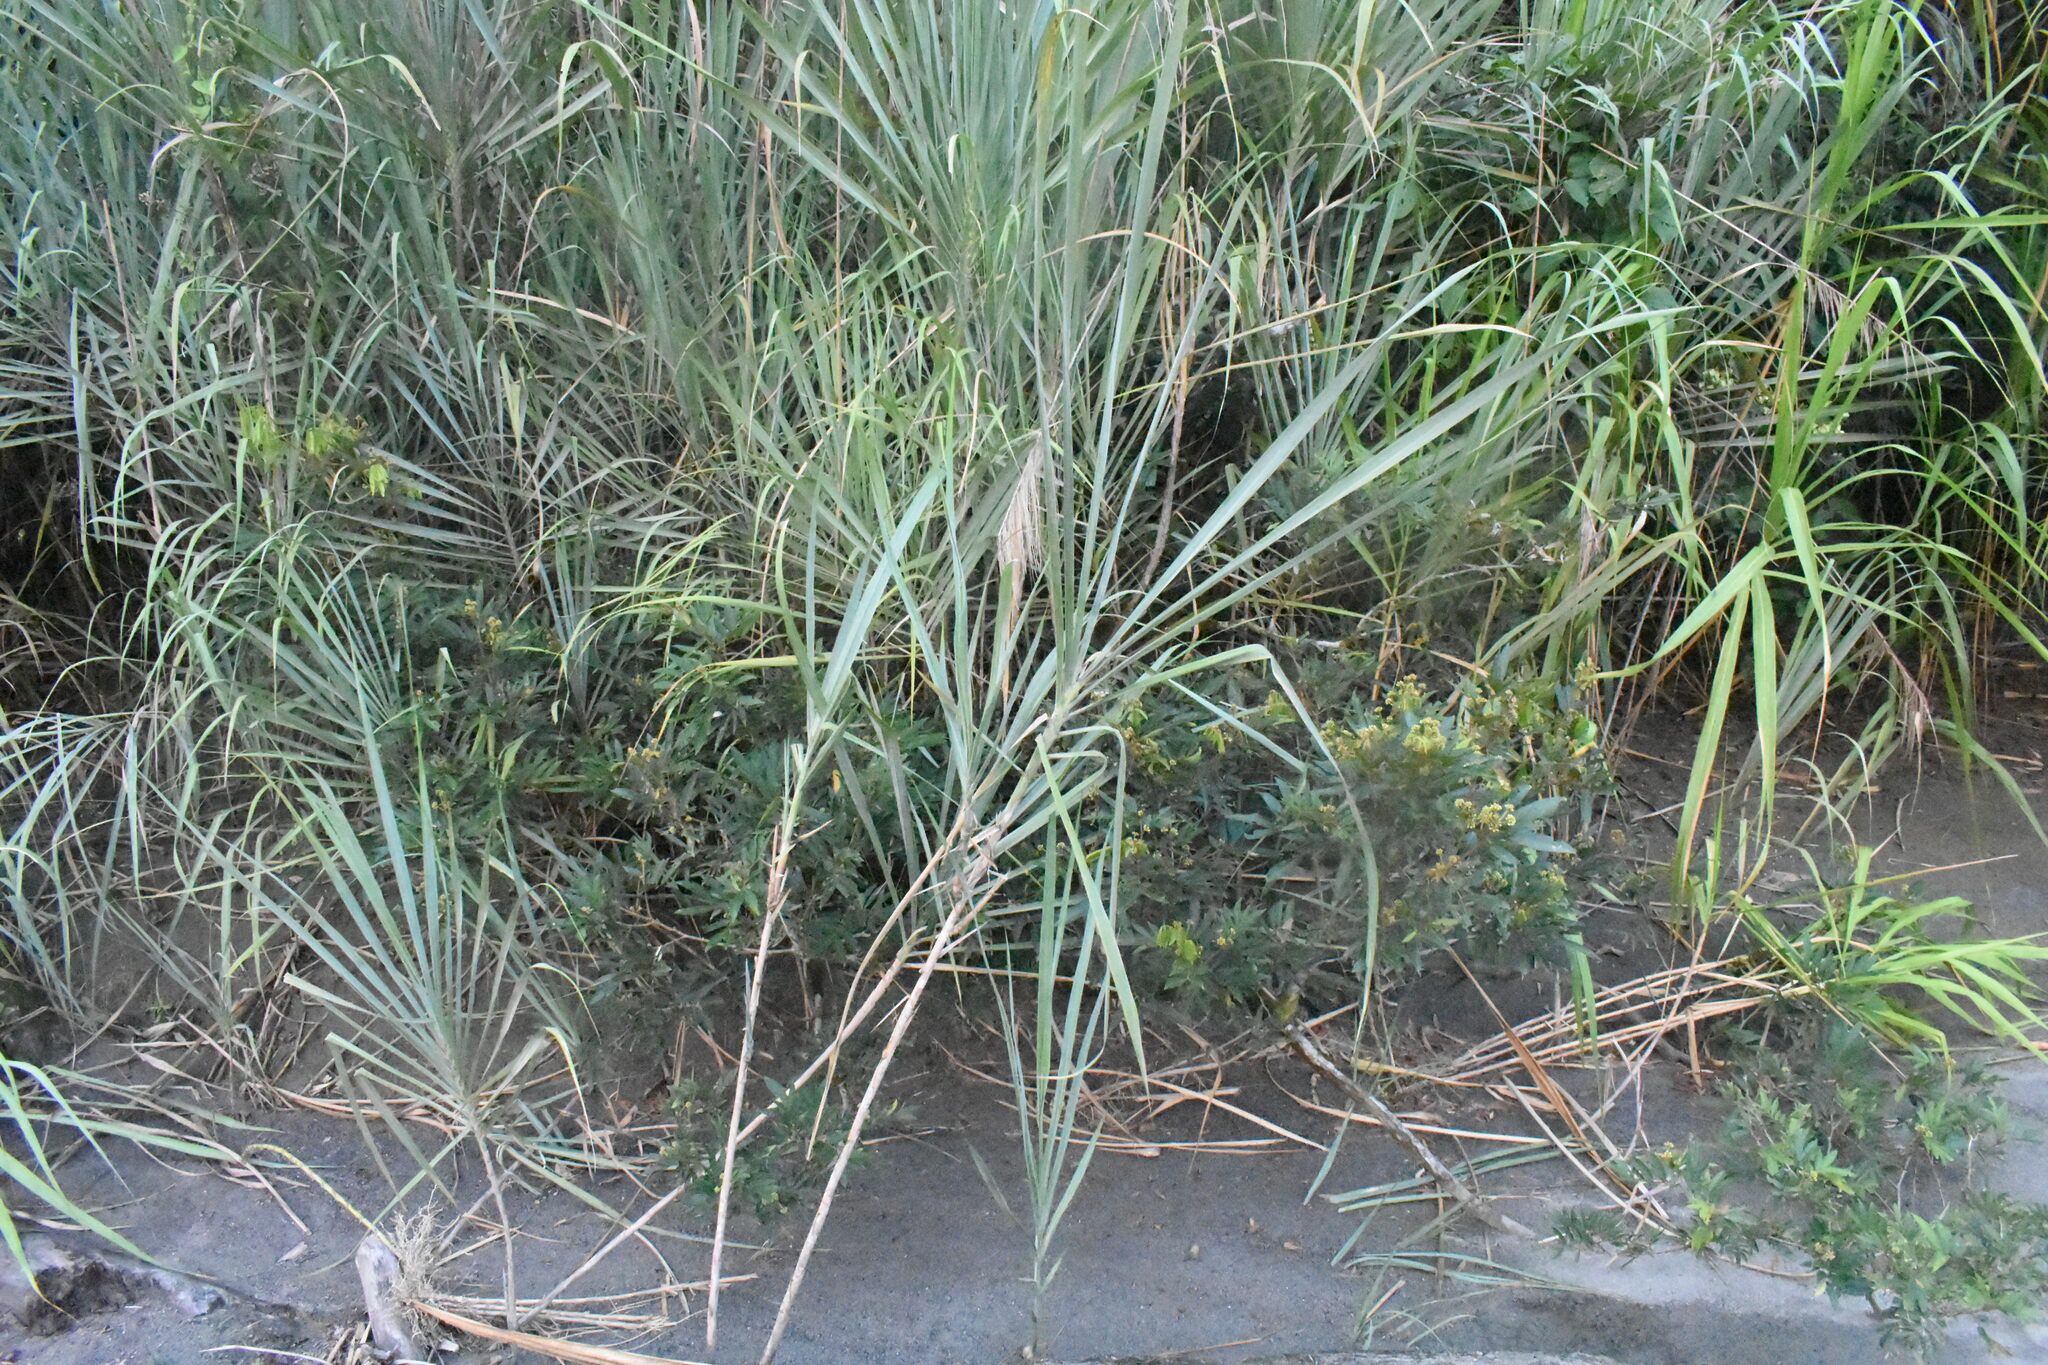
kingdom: Plantae
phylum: Tracheophyta
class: Liliopsida
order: Poales
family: Poaceae
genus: Gynerium
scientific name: Gynerium sagittatum
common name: Wild cane
